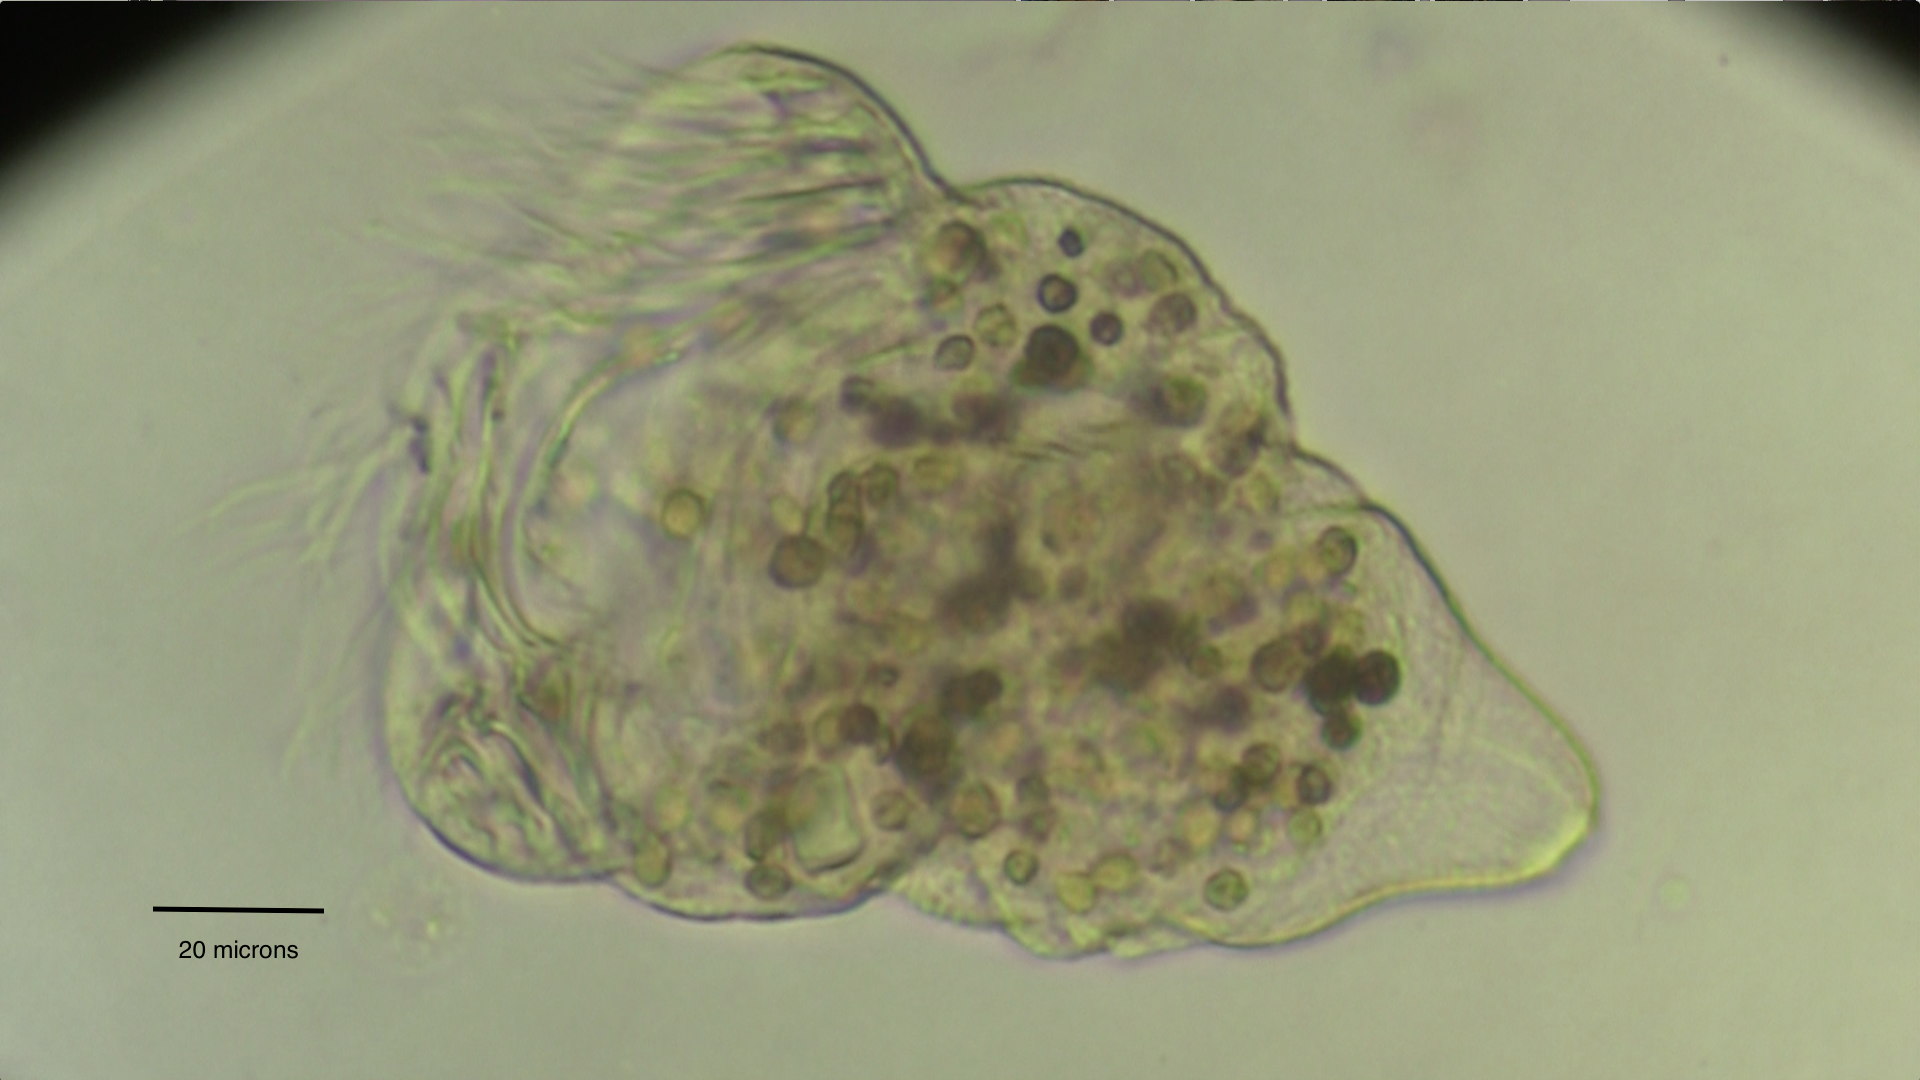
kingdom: Chromista
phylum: Ciliophora
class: Oligohymenophorea
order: Peritrichida
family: Epistylididae
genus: Campanella
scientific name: Campanella umbellaria
